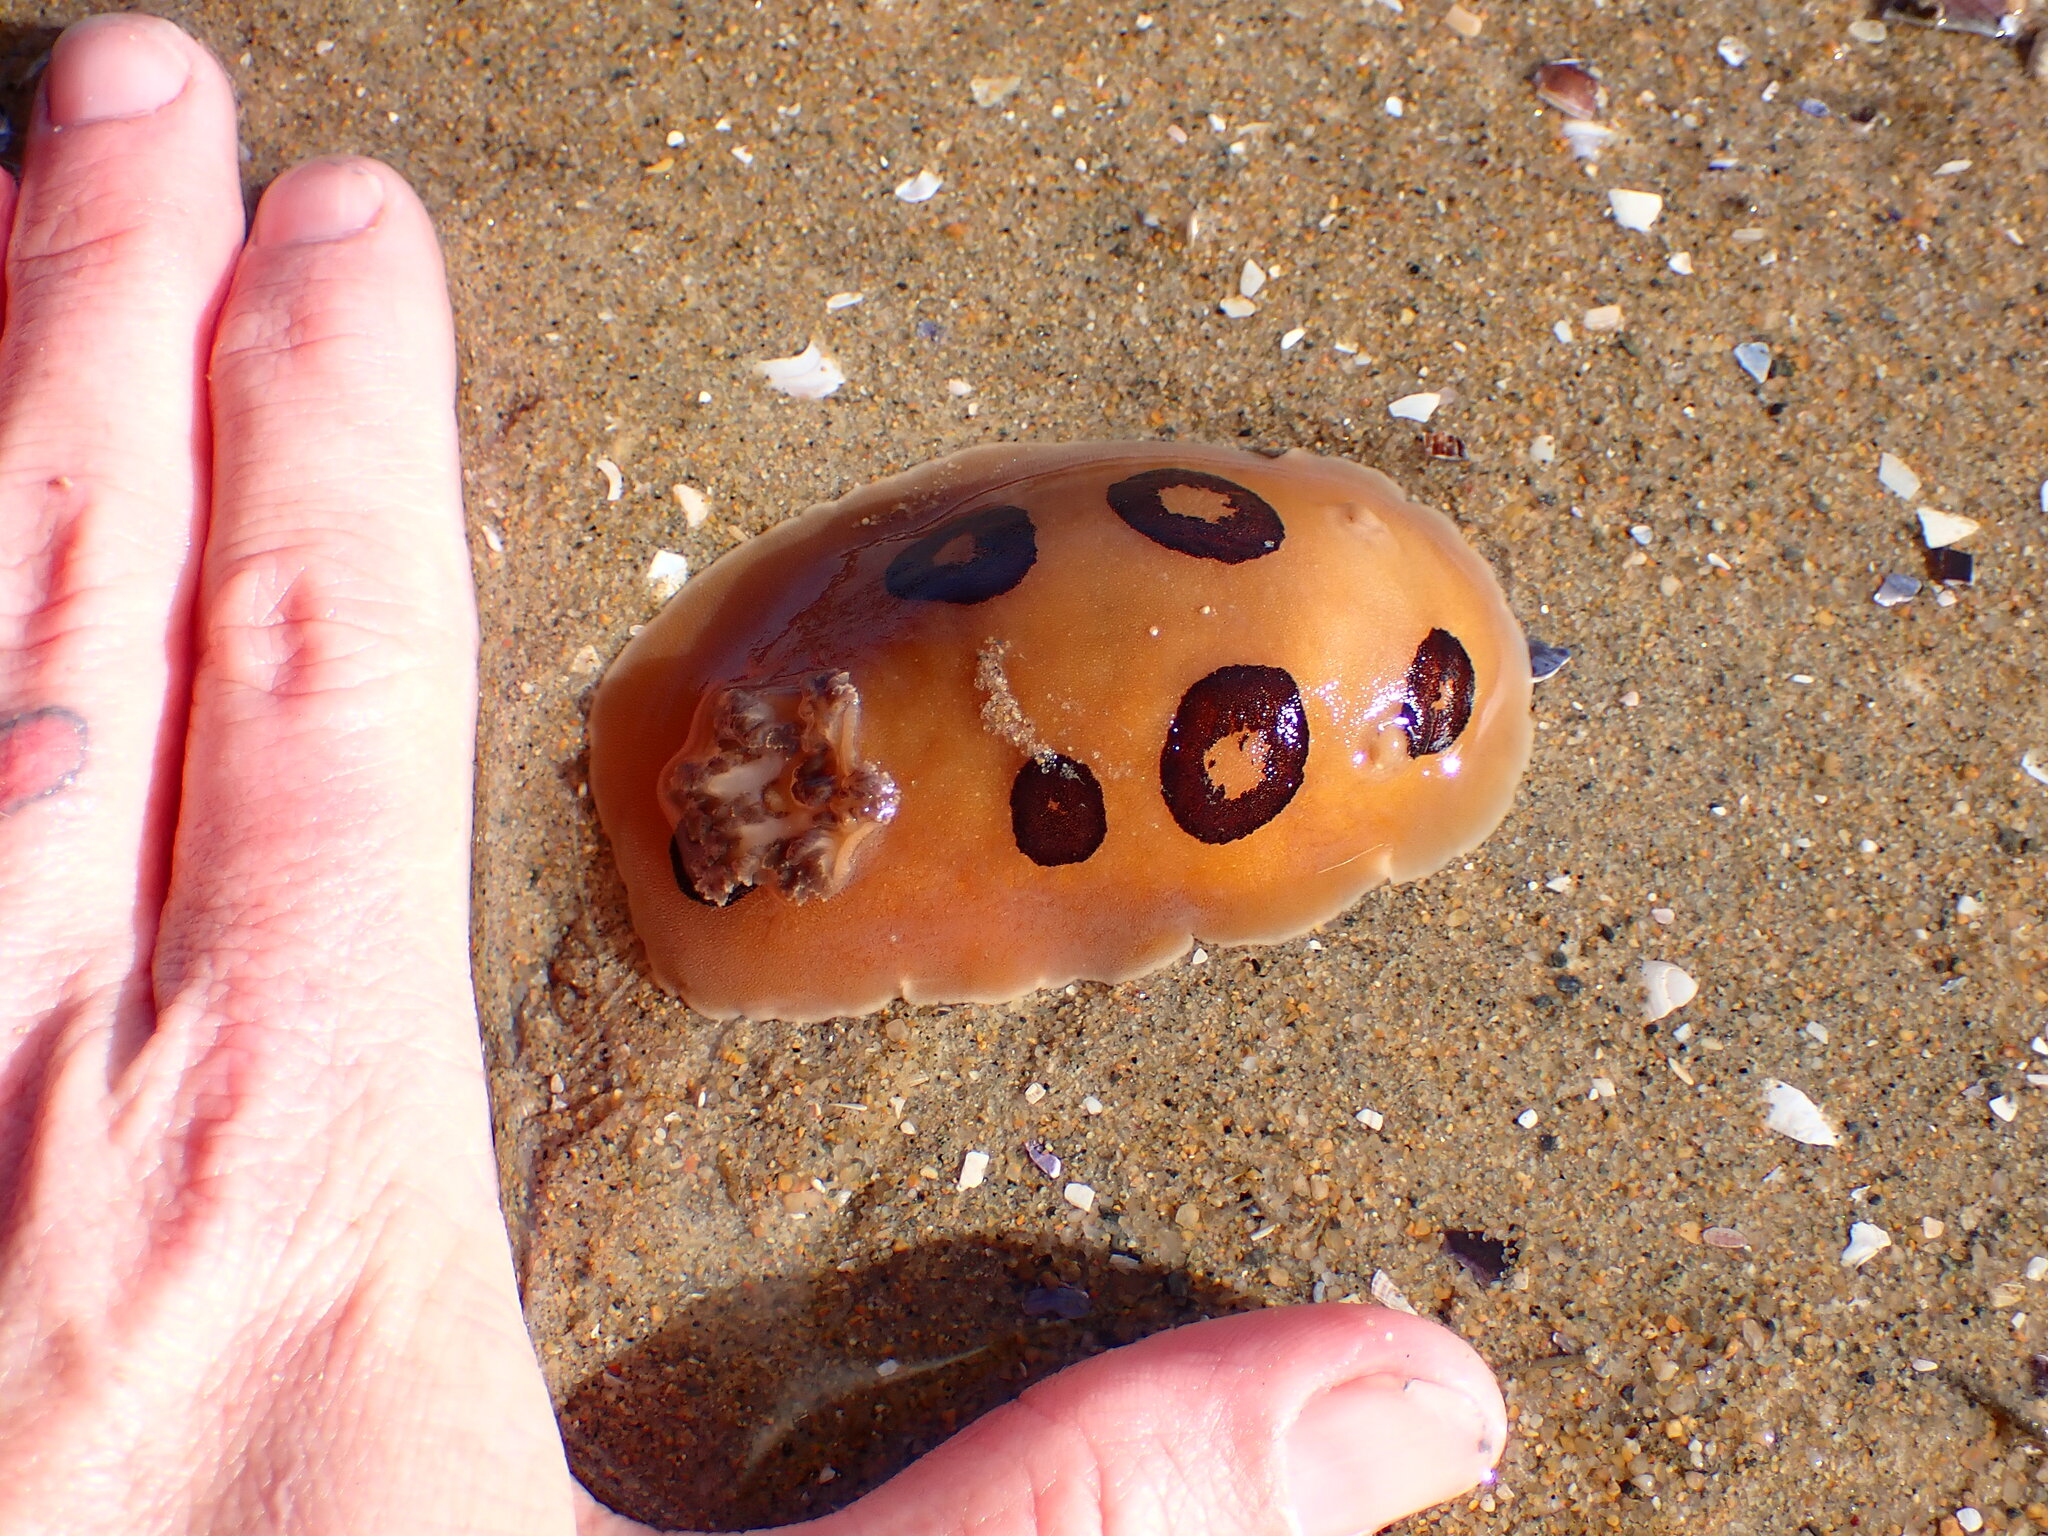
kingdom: Animalia
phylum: Mollusca
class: Gastropoda
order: Nudibranchia
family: Discodorididae
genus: Diaulula
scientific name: Diaulula sandiegensis
